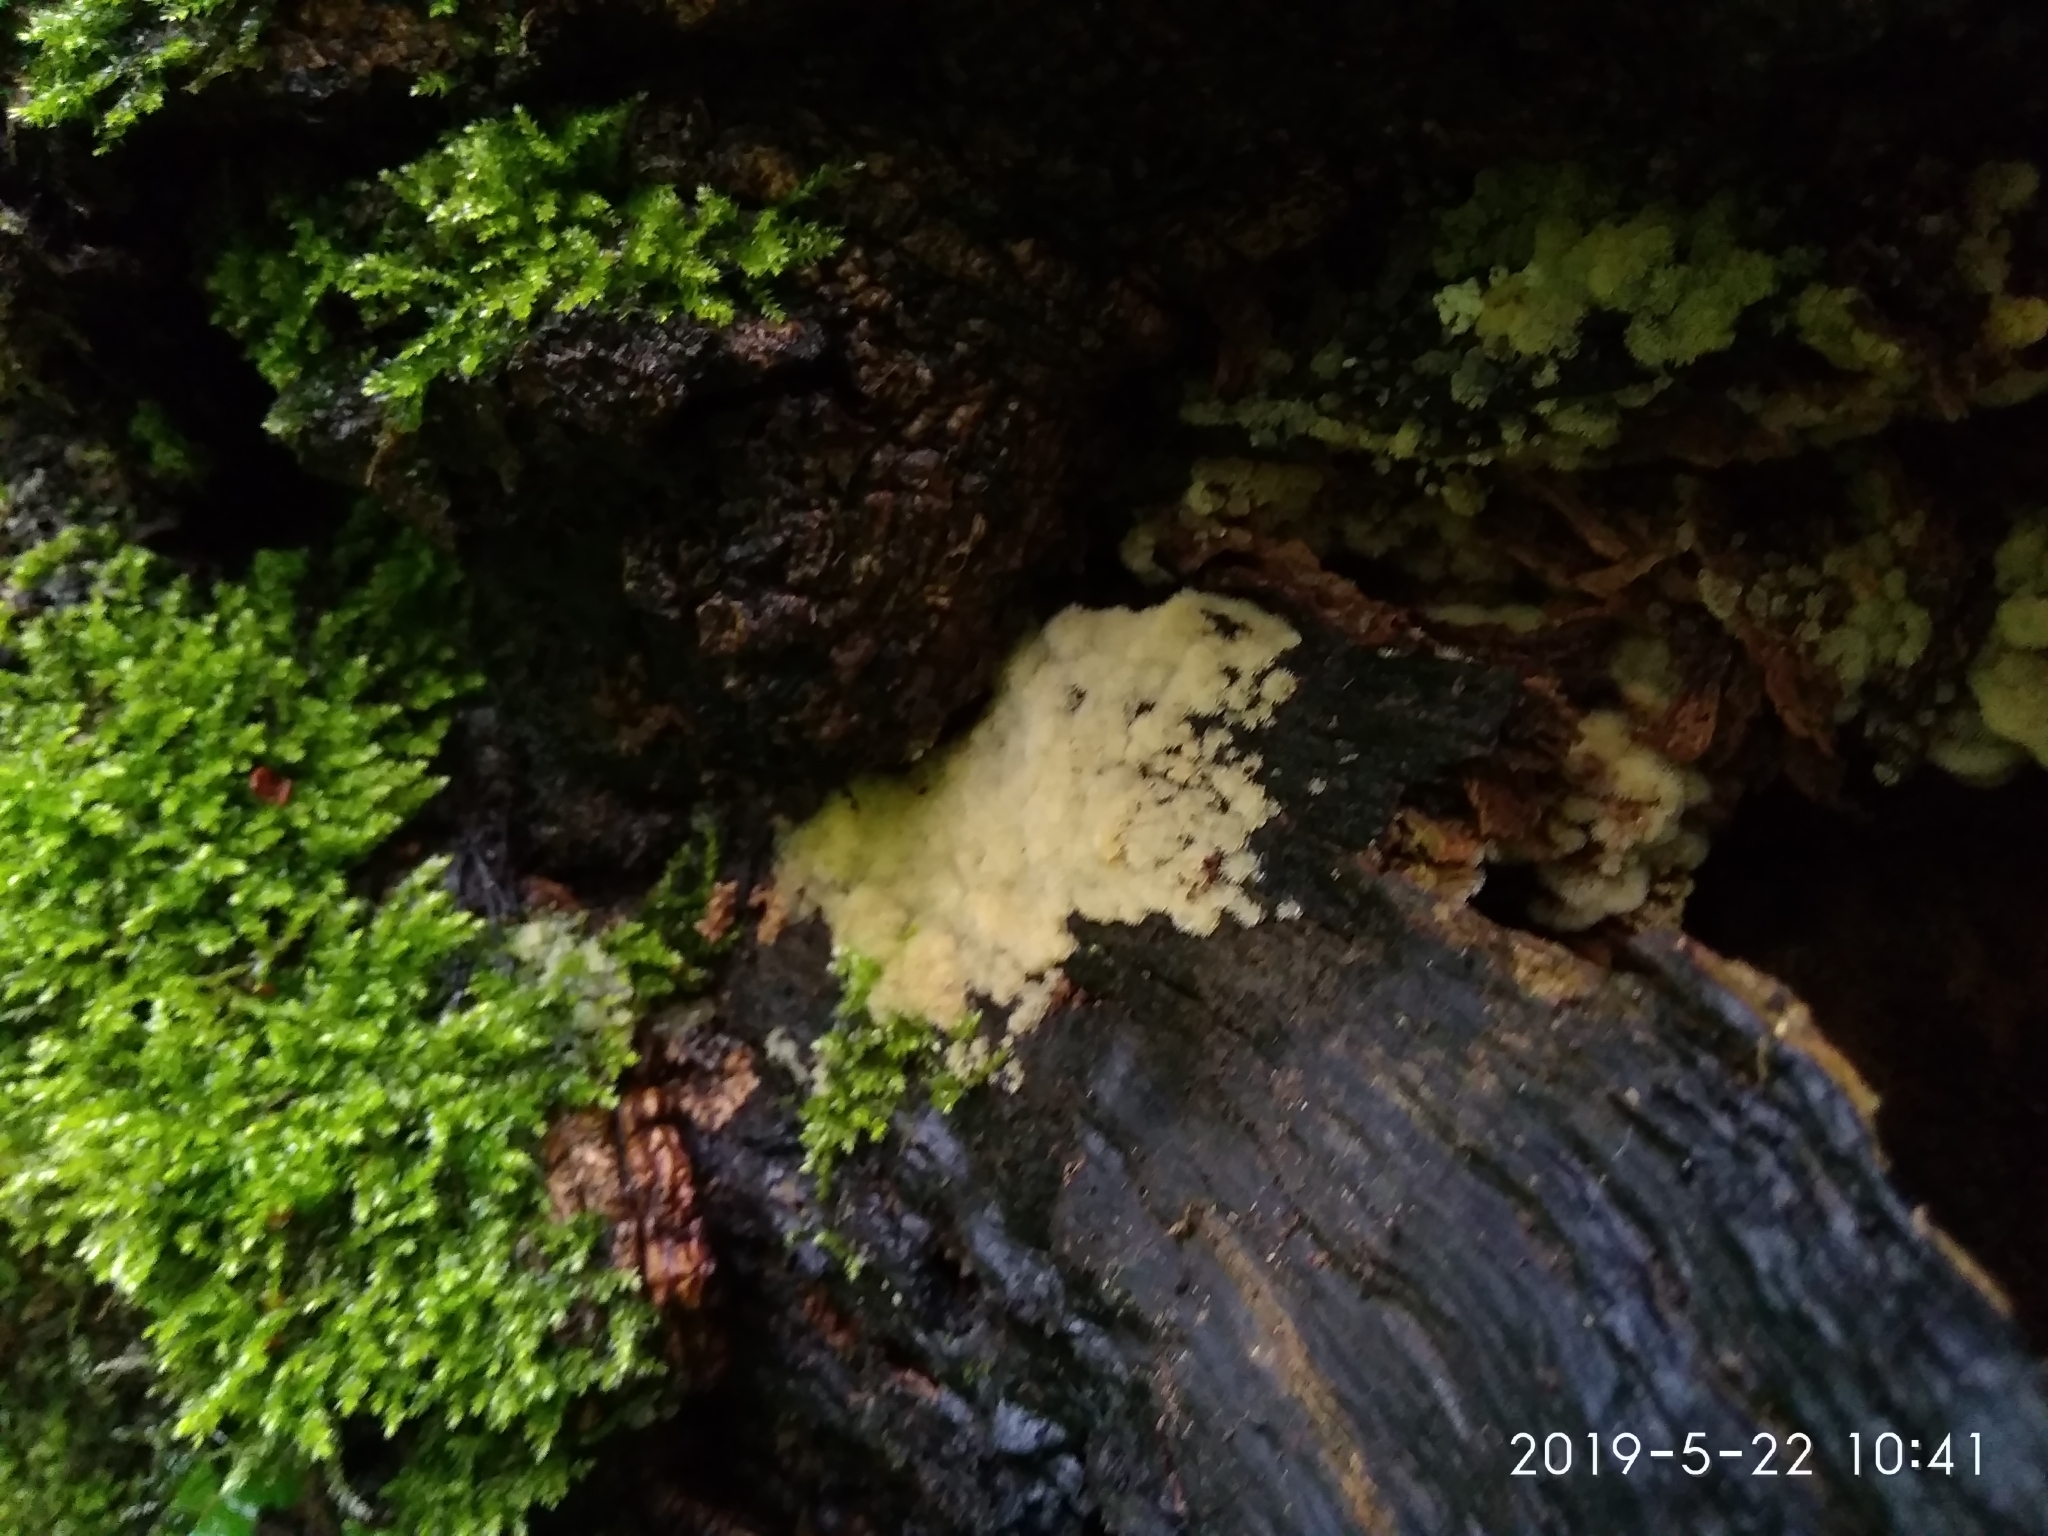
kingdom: Protozoa
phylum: Mycetozoa
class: Protosteliomycetes
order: Ceratiomyxales
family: Ceratiomyxaceae
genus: Ceratiomyxa
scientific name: Ceratiomyxa fruticulosa
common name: Honeycomb coral slime mold
